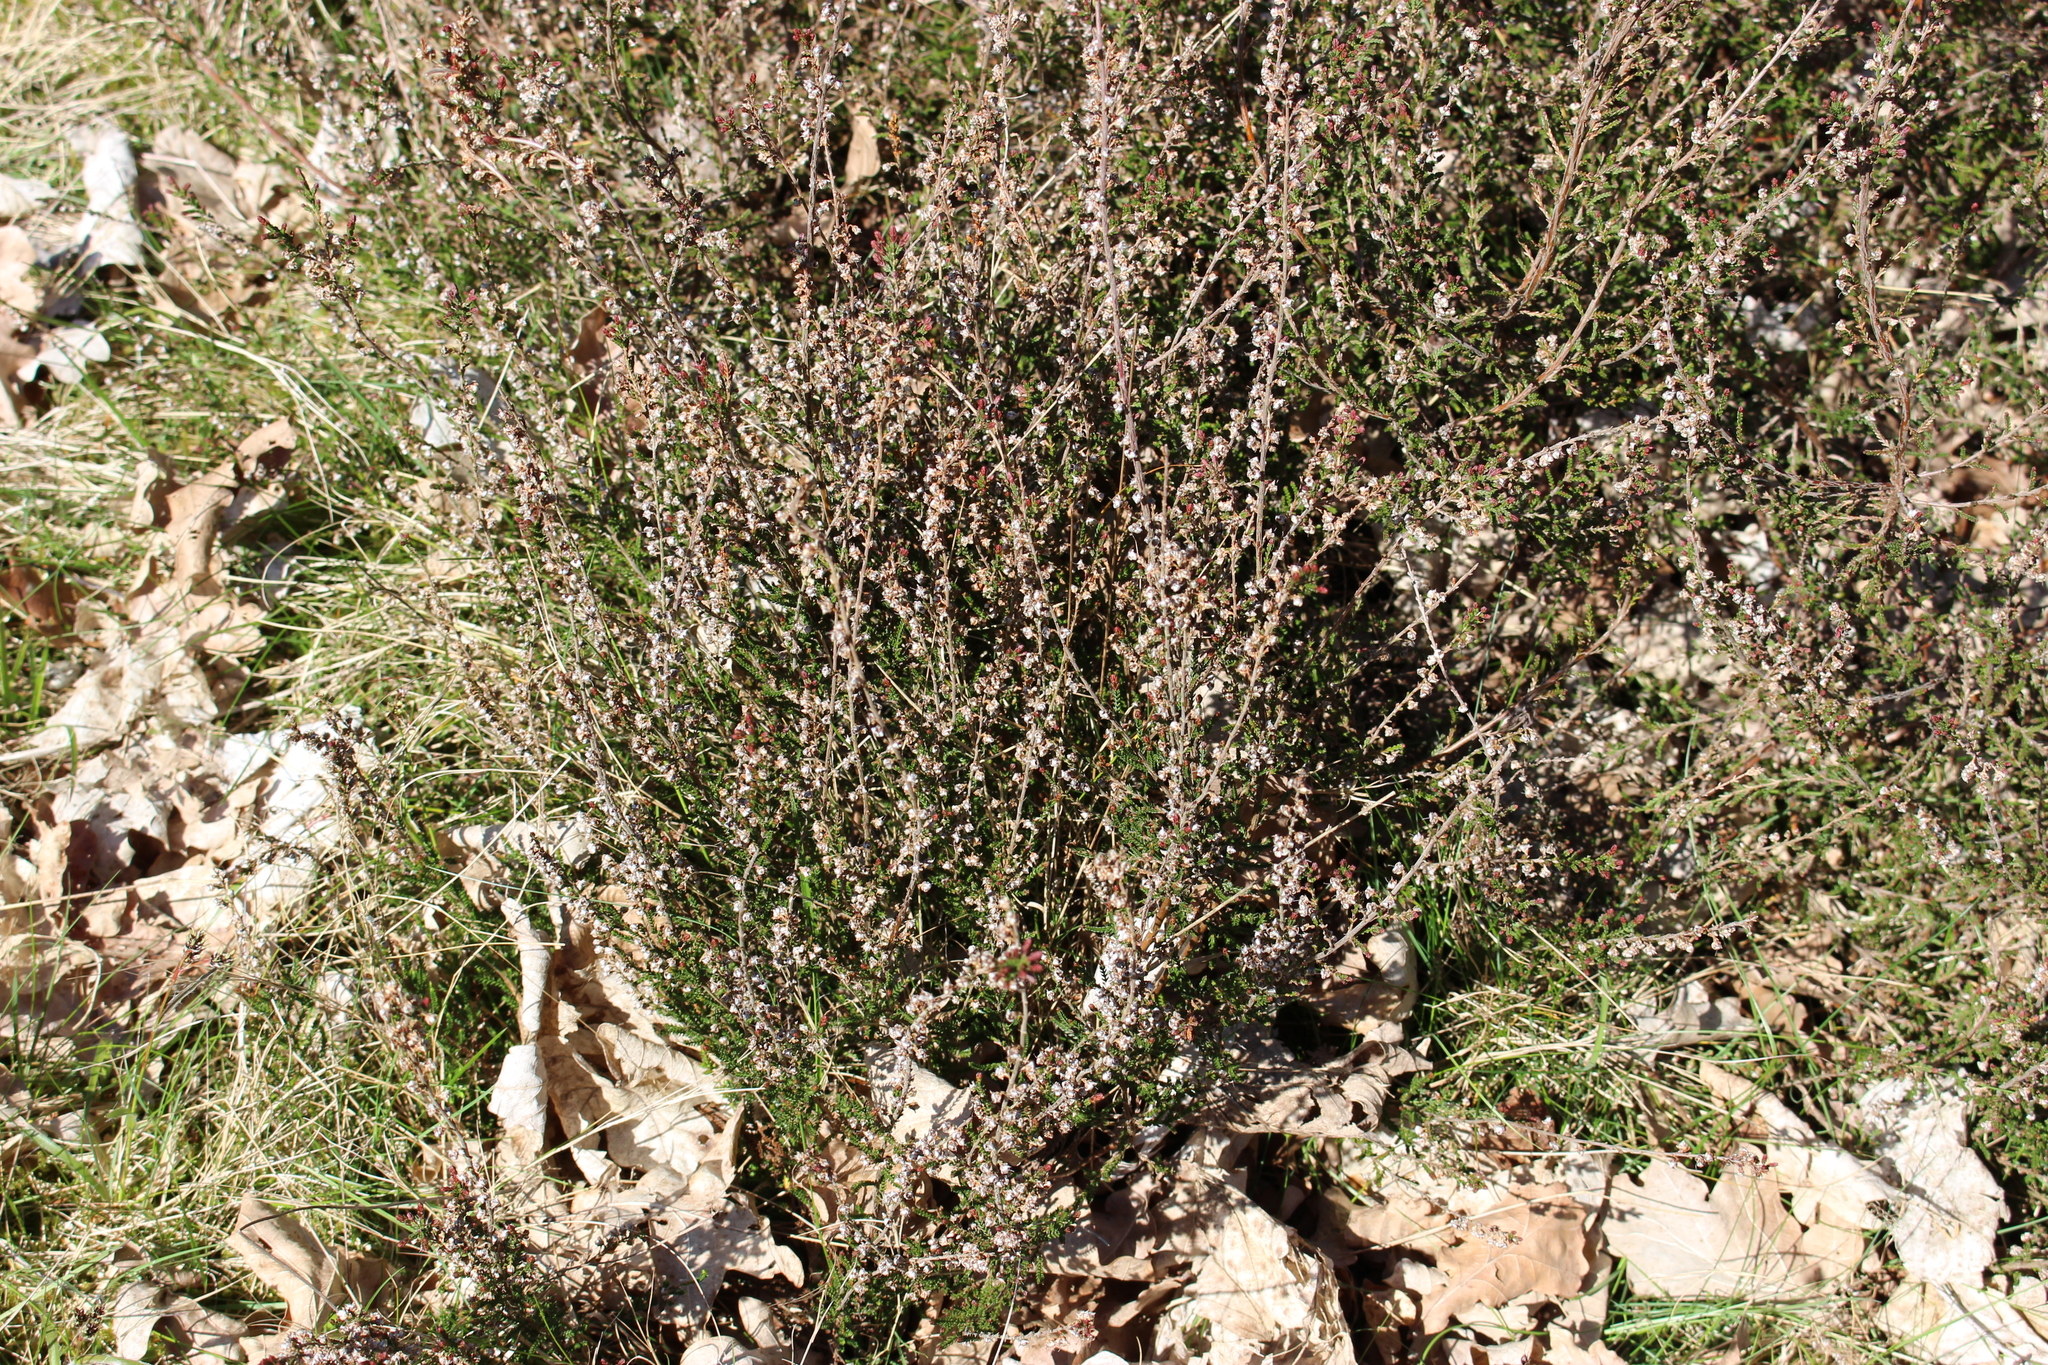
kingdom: Plantae
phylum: Tracheophyta
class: Magnoliopsida
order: Ericales
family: Ericaceae
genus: Calluna
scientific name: Calluna vulgaris
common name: Heather
